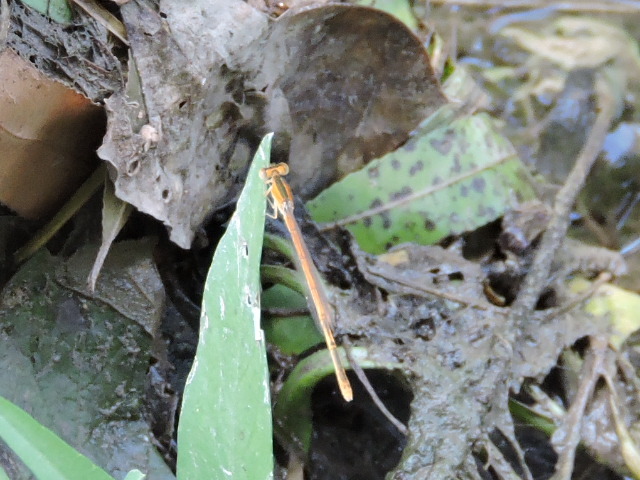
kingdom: Animalia
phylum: Arthropoda
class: Insecta
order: Odonata
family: Coenagrionidae
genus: Ischnura
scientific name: Ischnura hastata
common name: Citrine forktail
